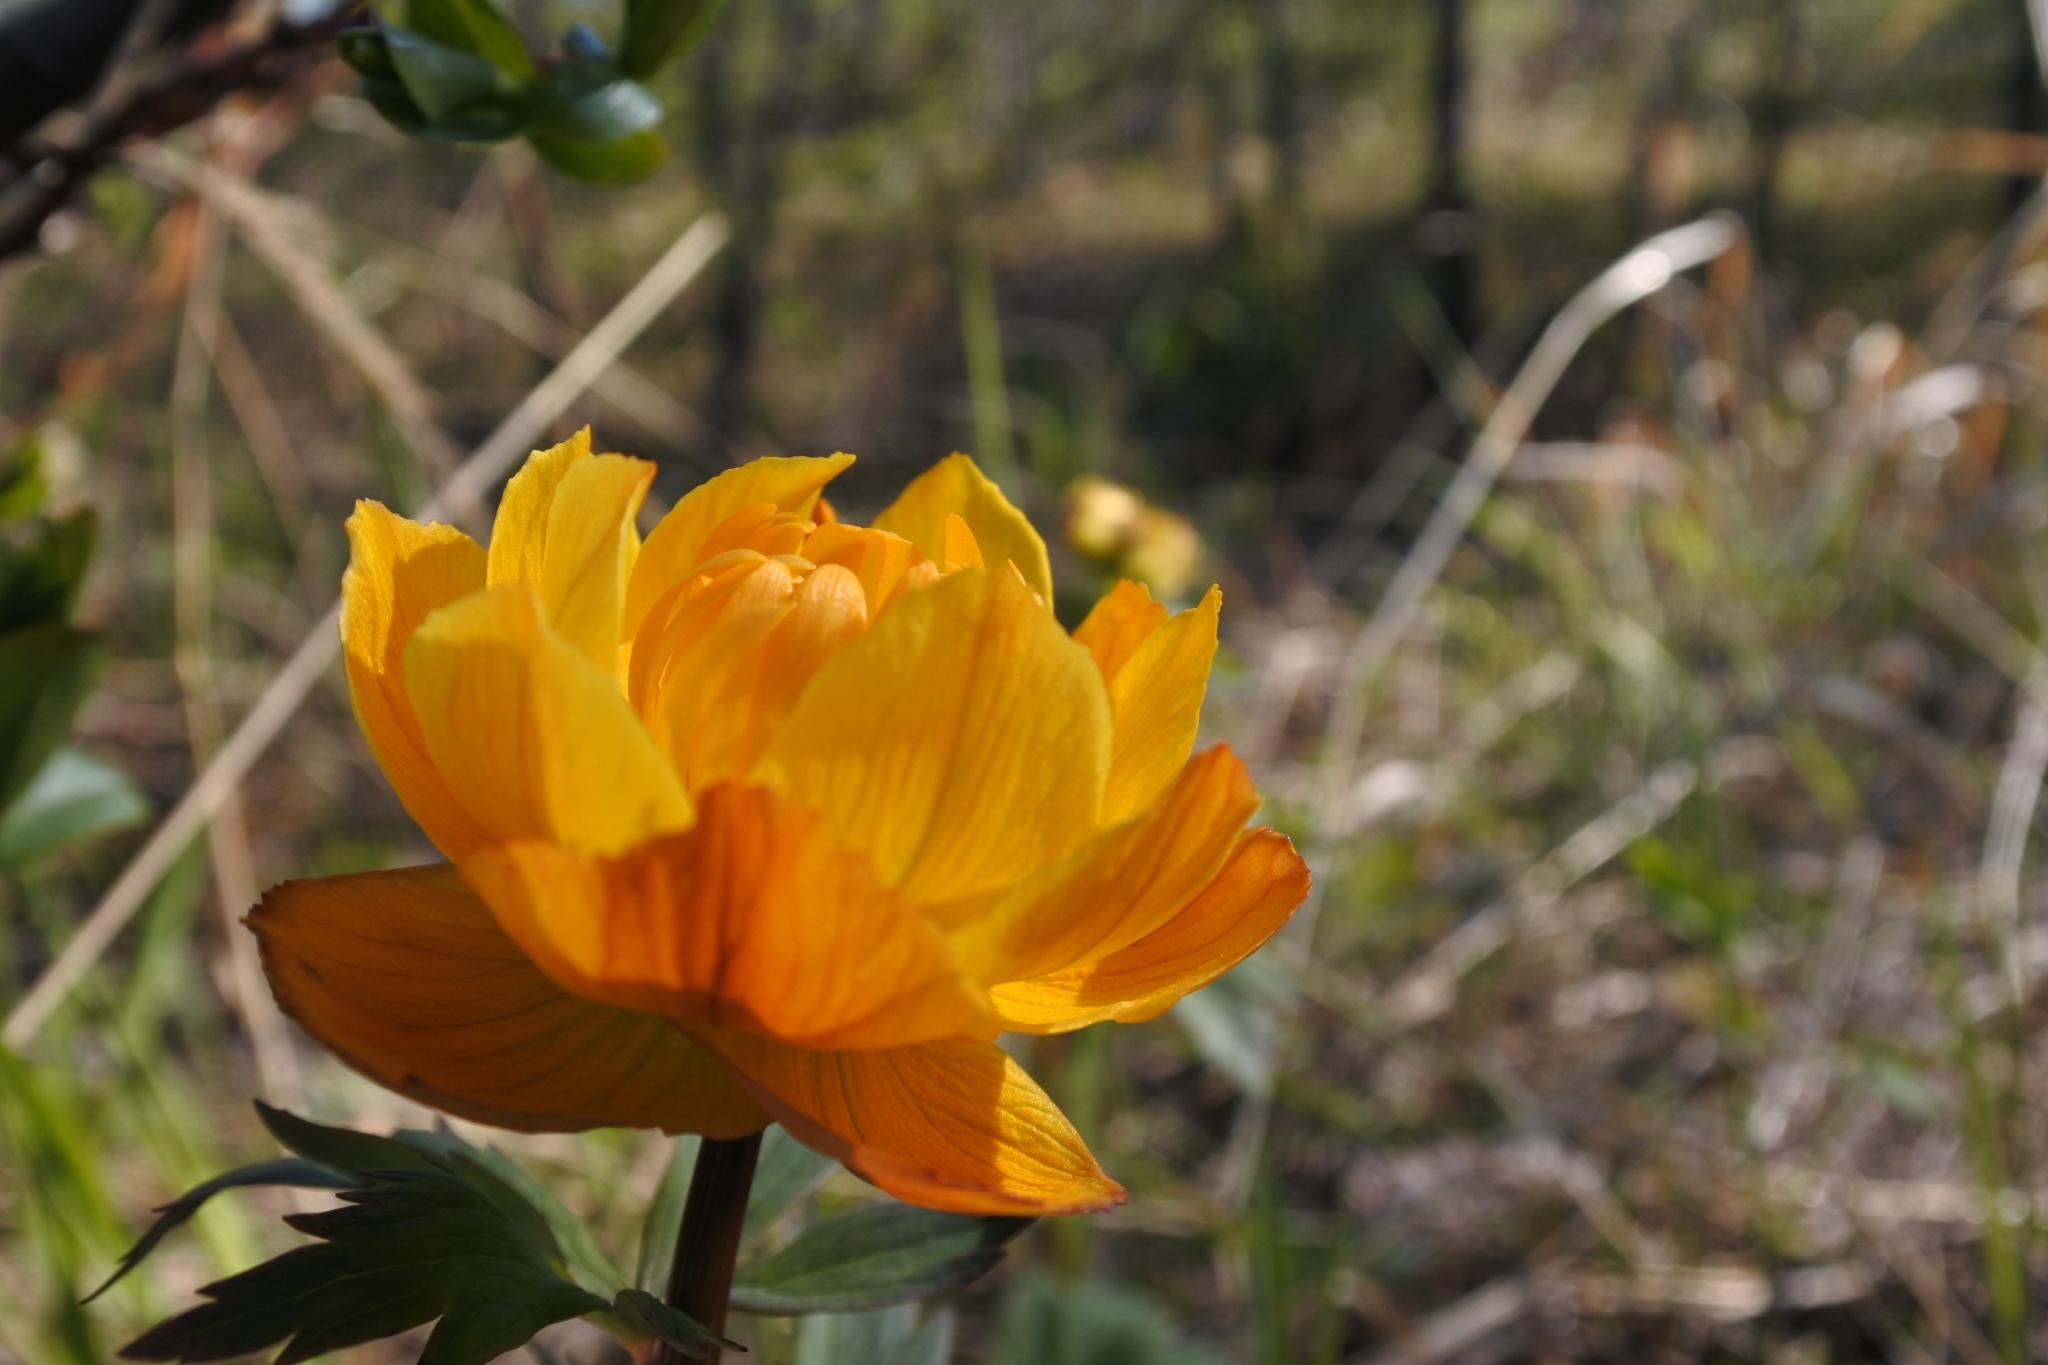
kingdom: Plantae
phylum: Tracheophyta
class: Magnoliopsida
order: Ranunculales
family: Ranunculaceae
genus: Trollius
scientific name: Trollius asiaticus
